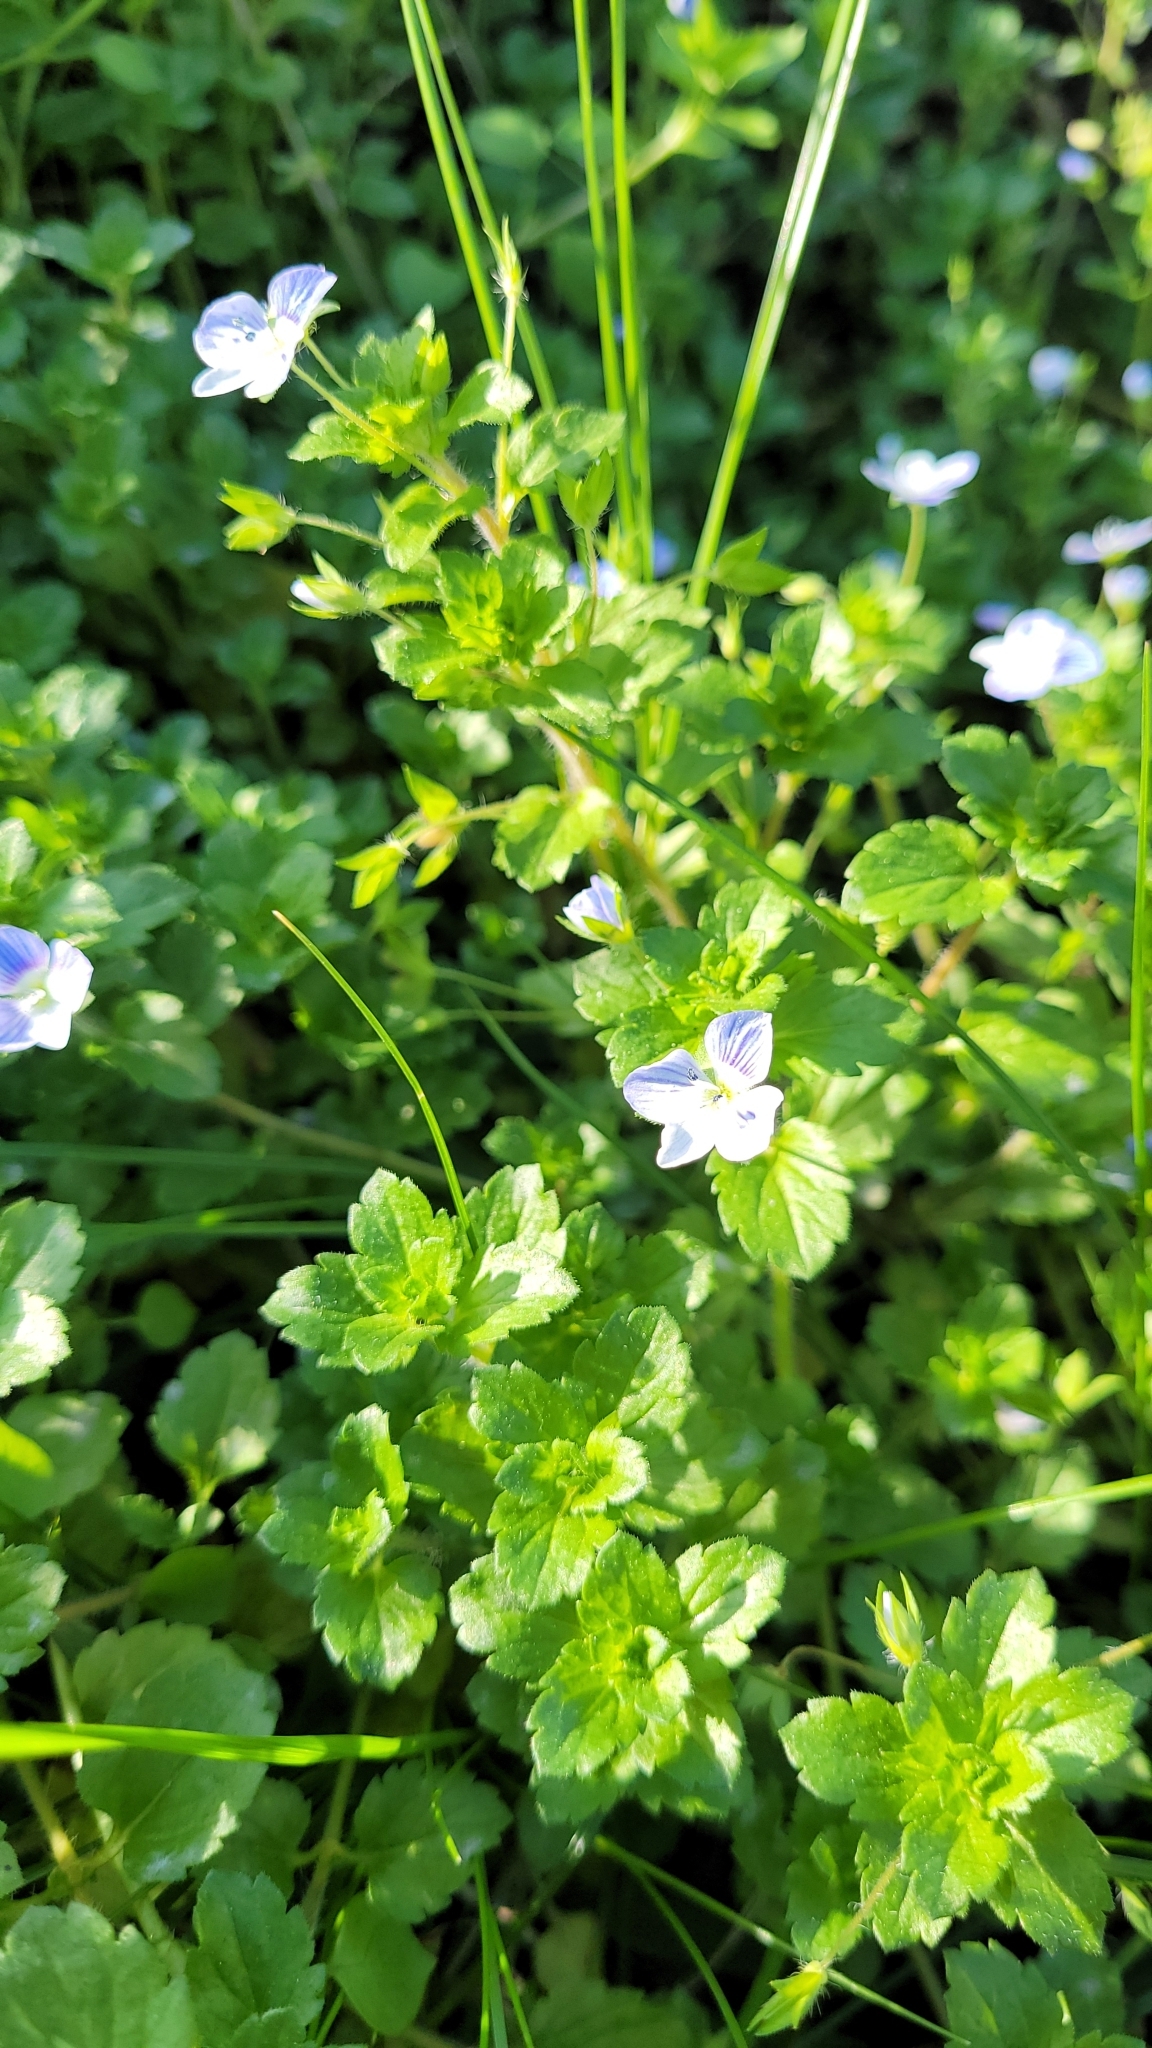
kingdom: Plantae
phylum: Tracheophyta
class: Magnoliopsida
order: Lamiales
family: Plantaginaceae
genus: Veronica
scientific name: Veronica persica
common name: Common field-speedwell
